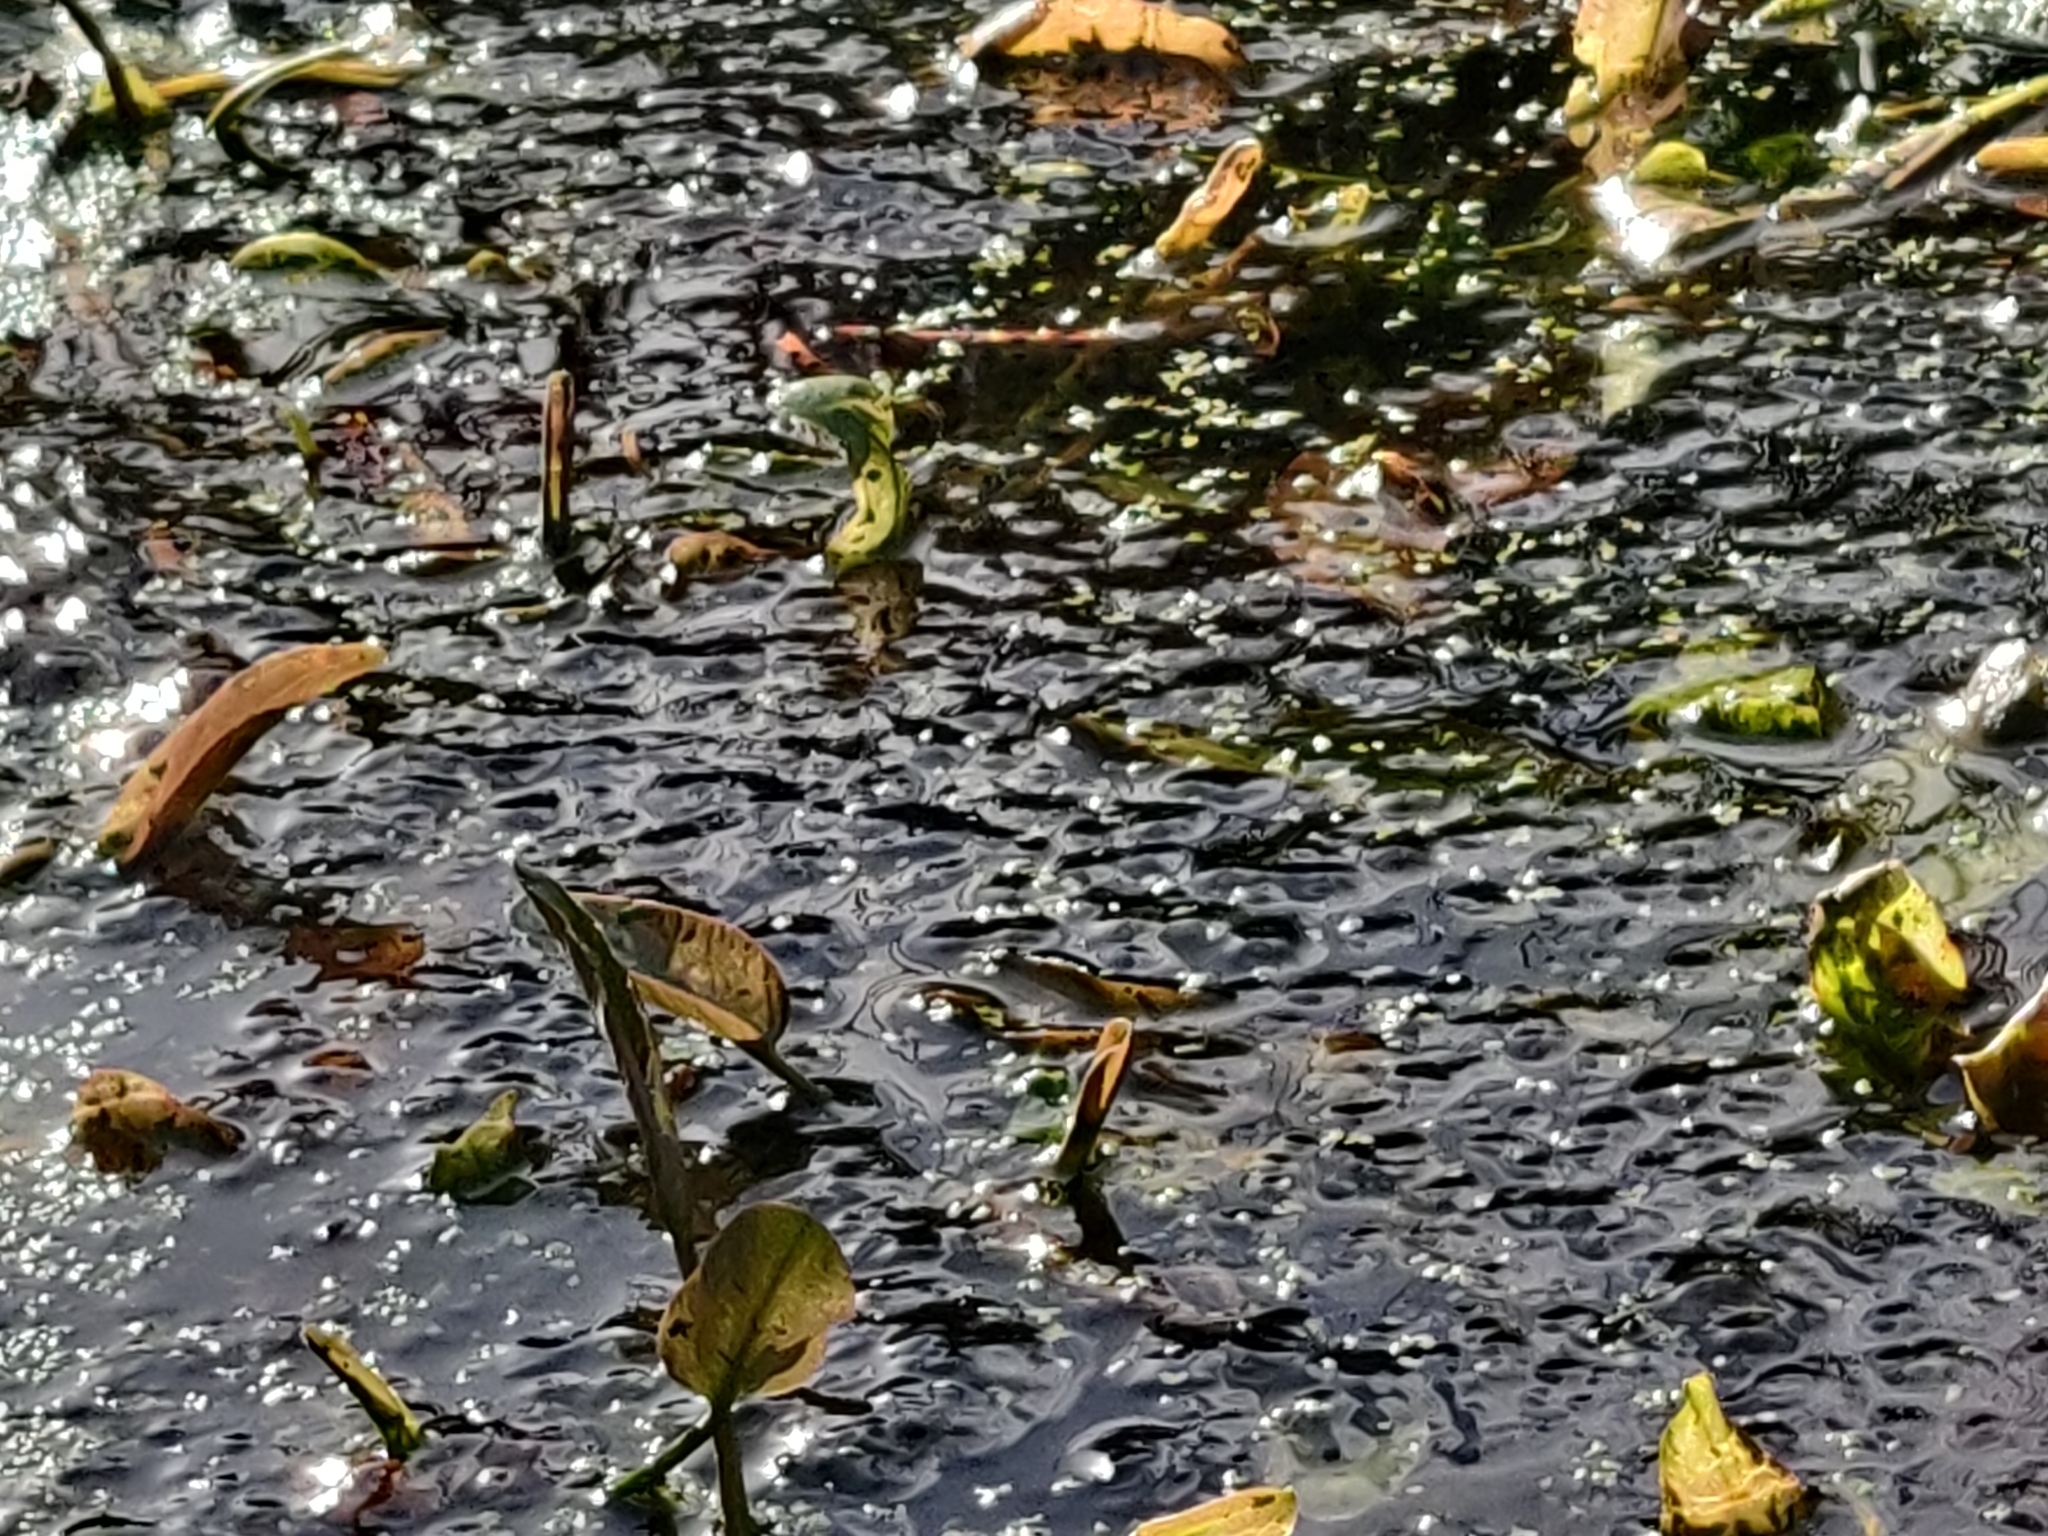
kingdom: Animalia
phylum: Chordata
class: Amphibia
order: Anura
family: Ranidae
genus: Rana
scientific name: Rana temporaria
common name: Common frog
